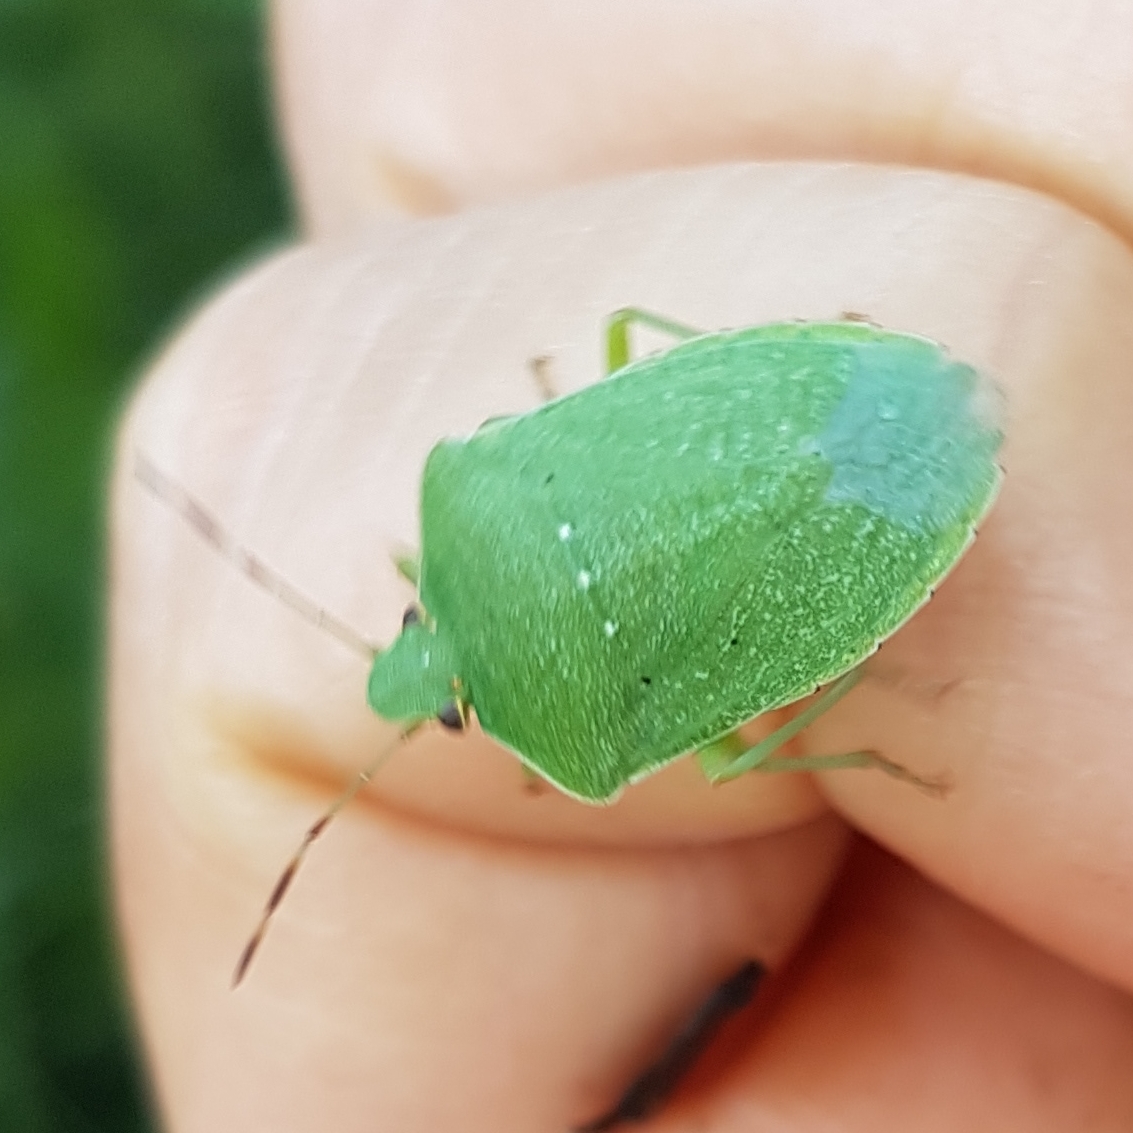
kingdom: Animalia
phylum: Arthropoda
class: Insecta
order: Hemiptera
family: Pentatomidae
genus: Nezara
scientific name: Nezara viridula
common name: Southern green stink bug
